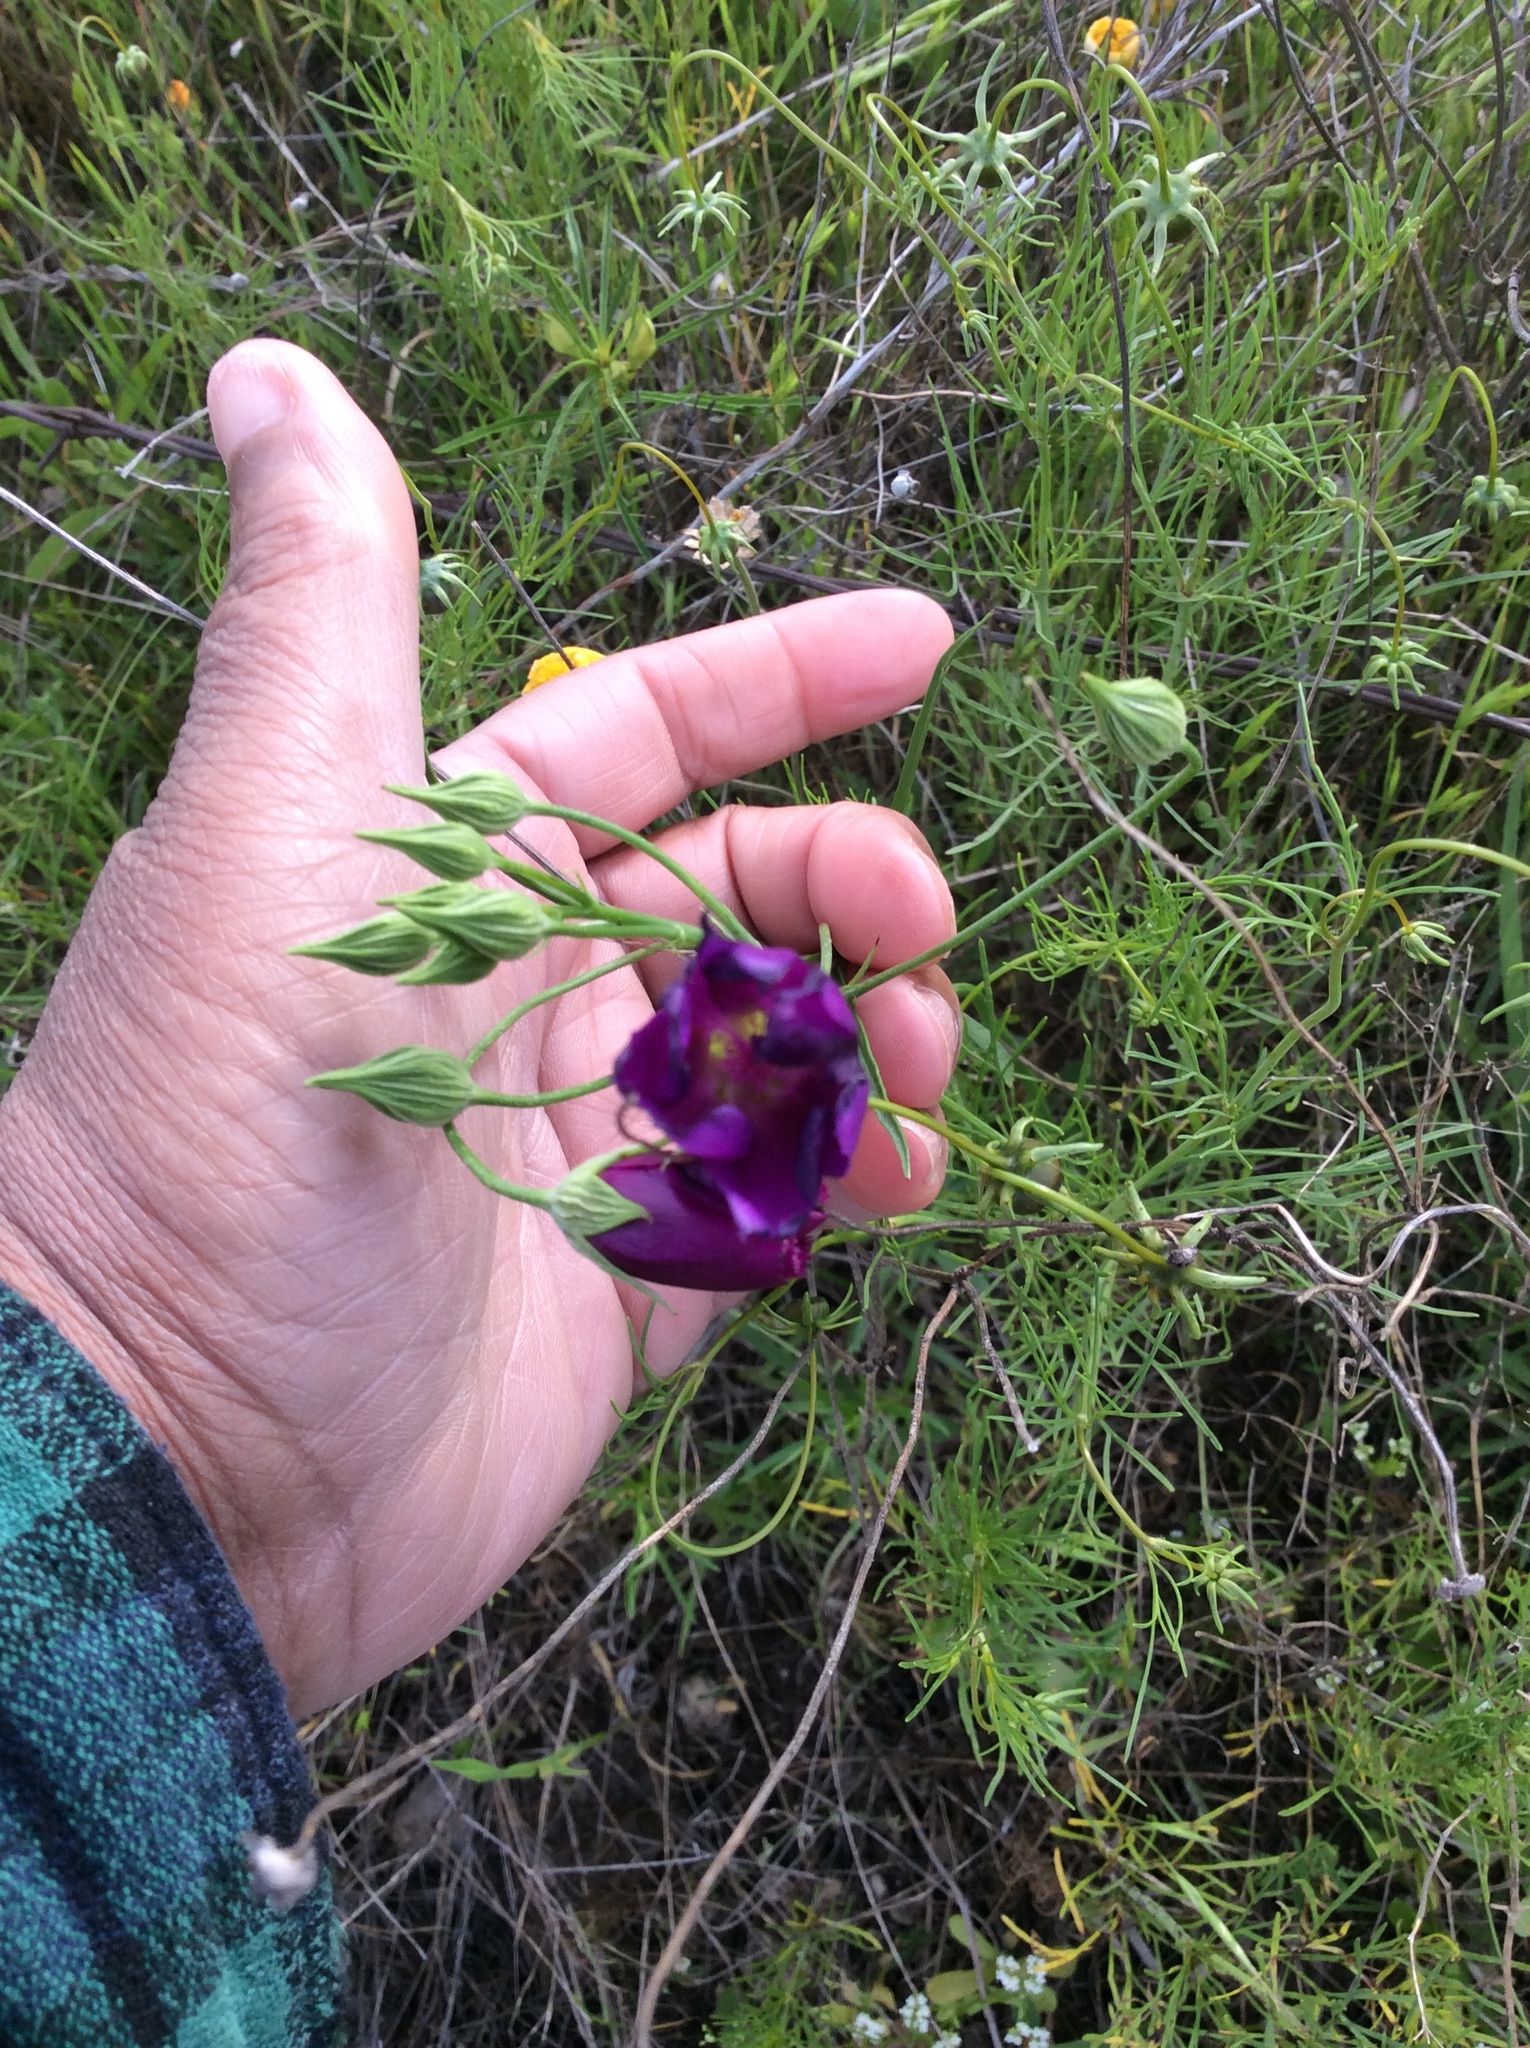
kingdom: Plantae
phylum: Tracheophyta
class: Magnoliopsida
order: Malvales
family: Malvaceae
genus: Callirhoe
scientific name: Callirhoe pedata
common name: Finger poppy-mallow
